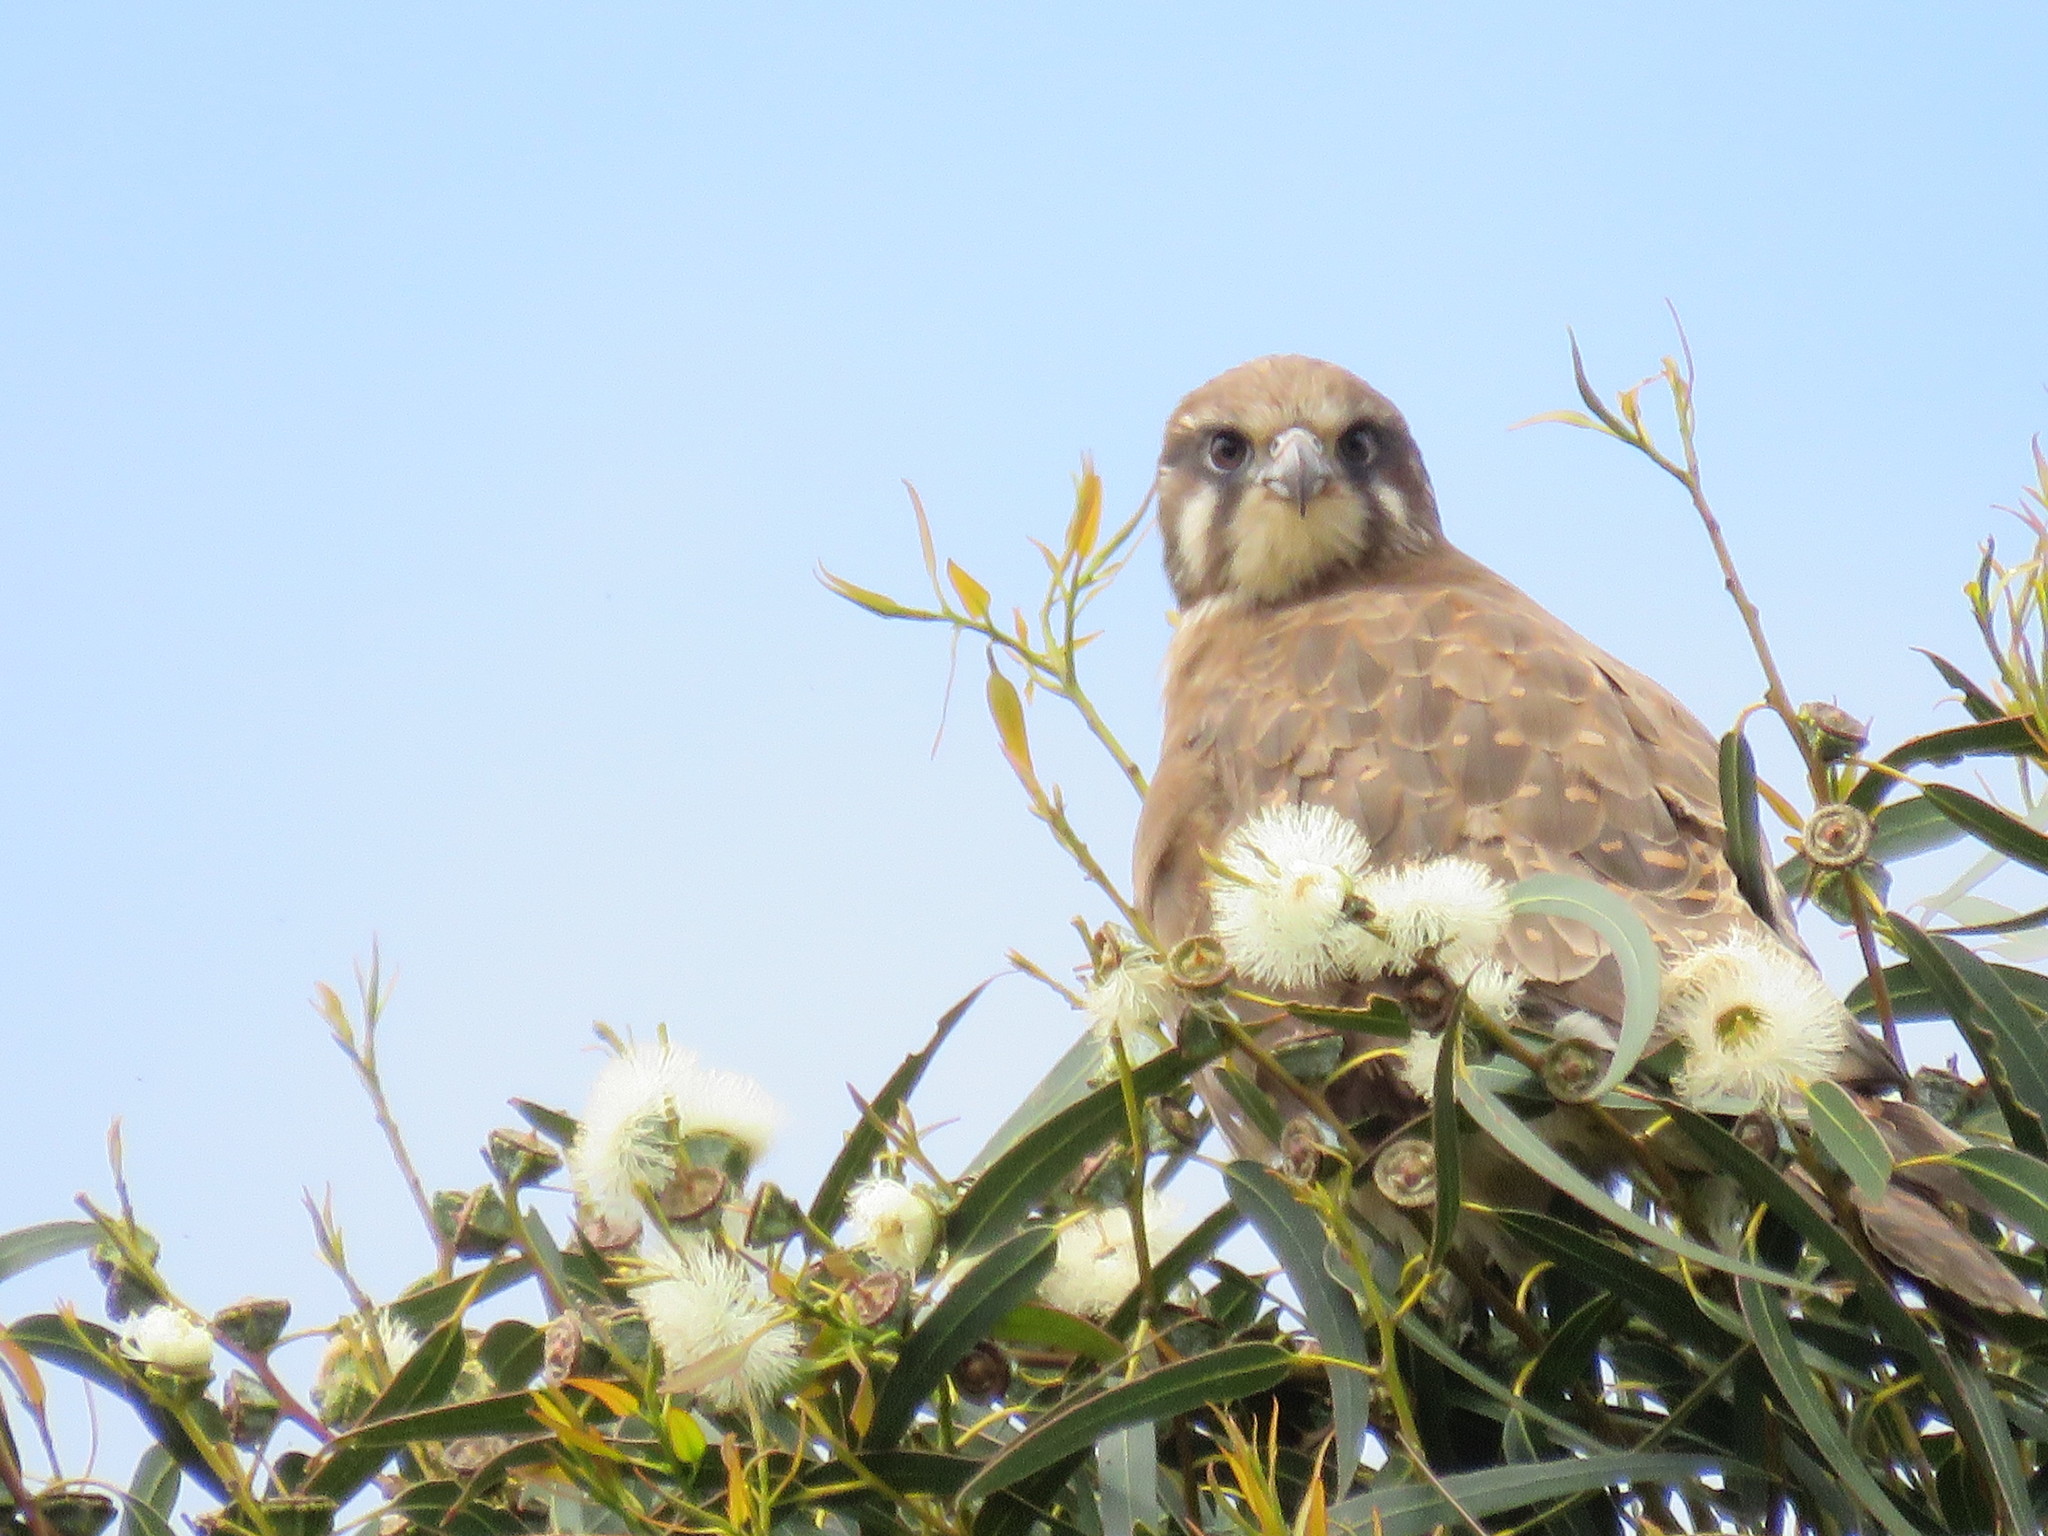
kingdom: Animalia
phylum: Chordata
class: Aves
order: Falconiformes
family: Falconidae
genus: Falco
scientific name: Falco berigora
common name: Brown falcon
